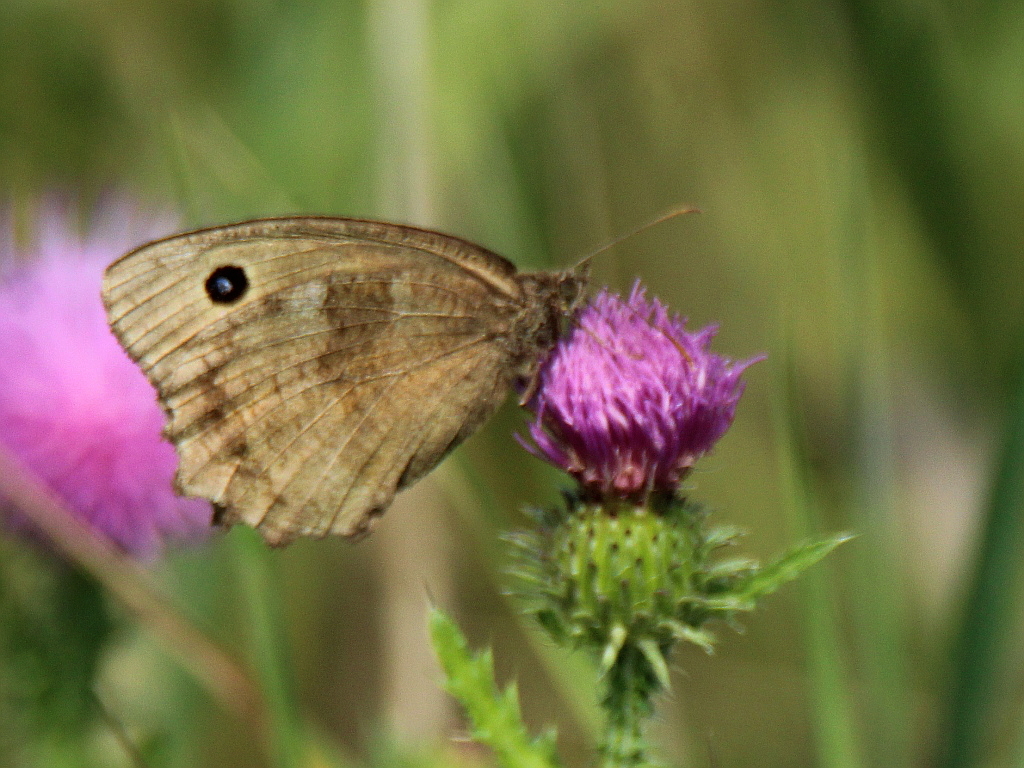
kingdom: Animalia
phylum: Arthropoda
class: Insecta
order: Lepidoptera
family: Nymphalidae
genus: Minois
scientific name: Minois dryas
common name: Dryad
